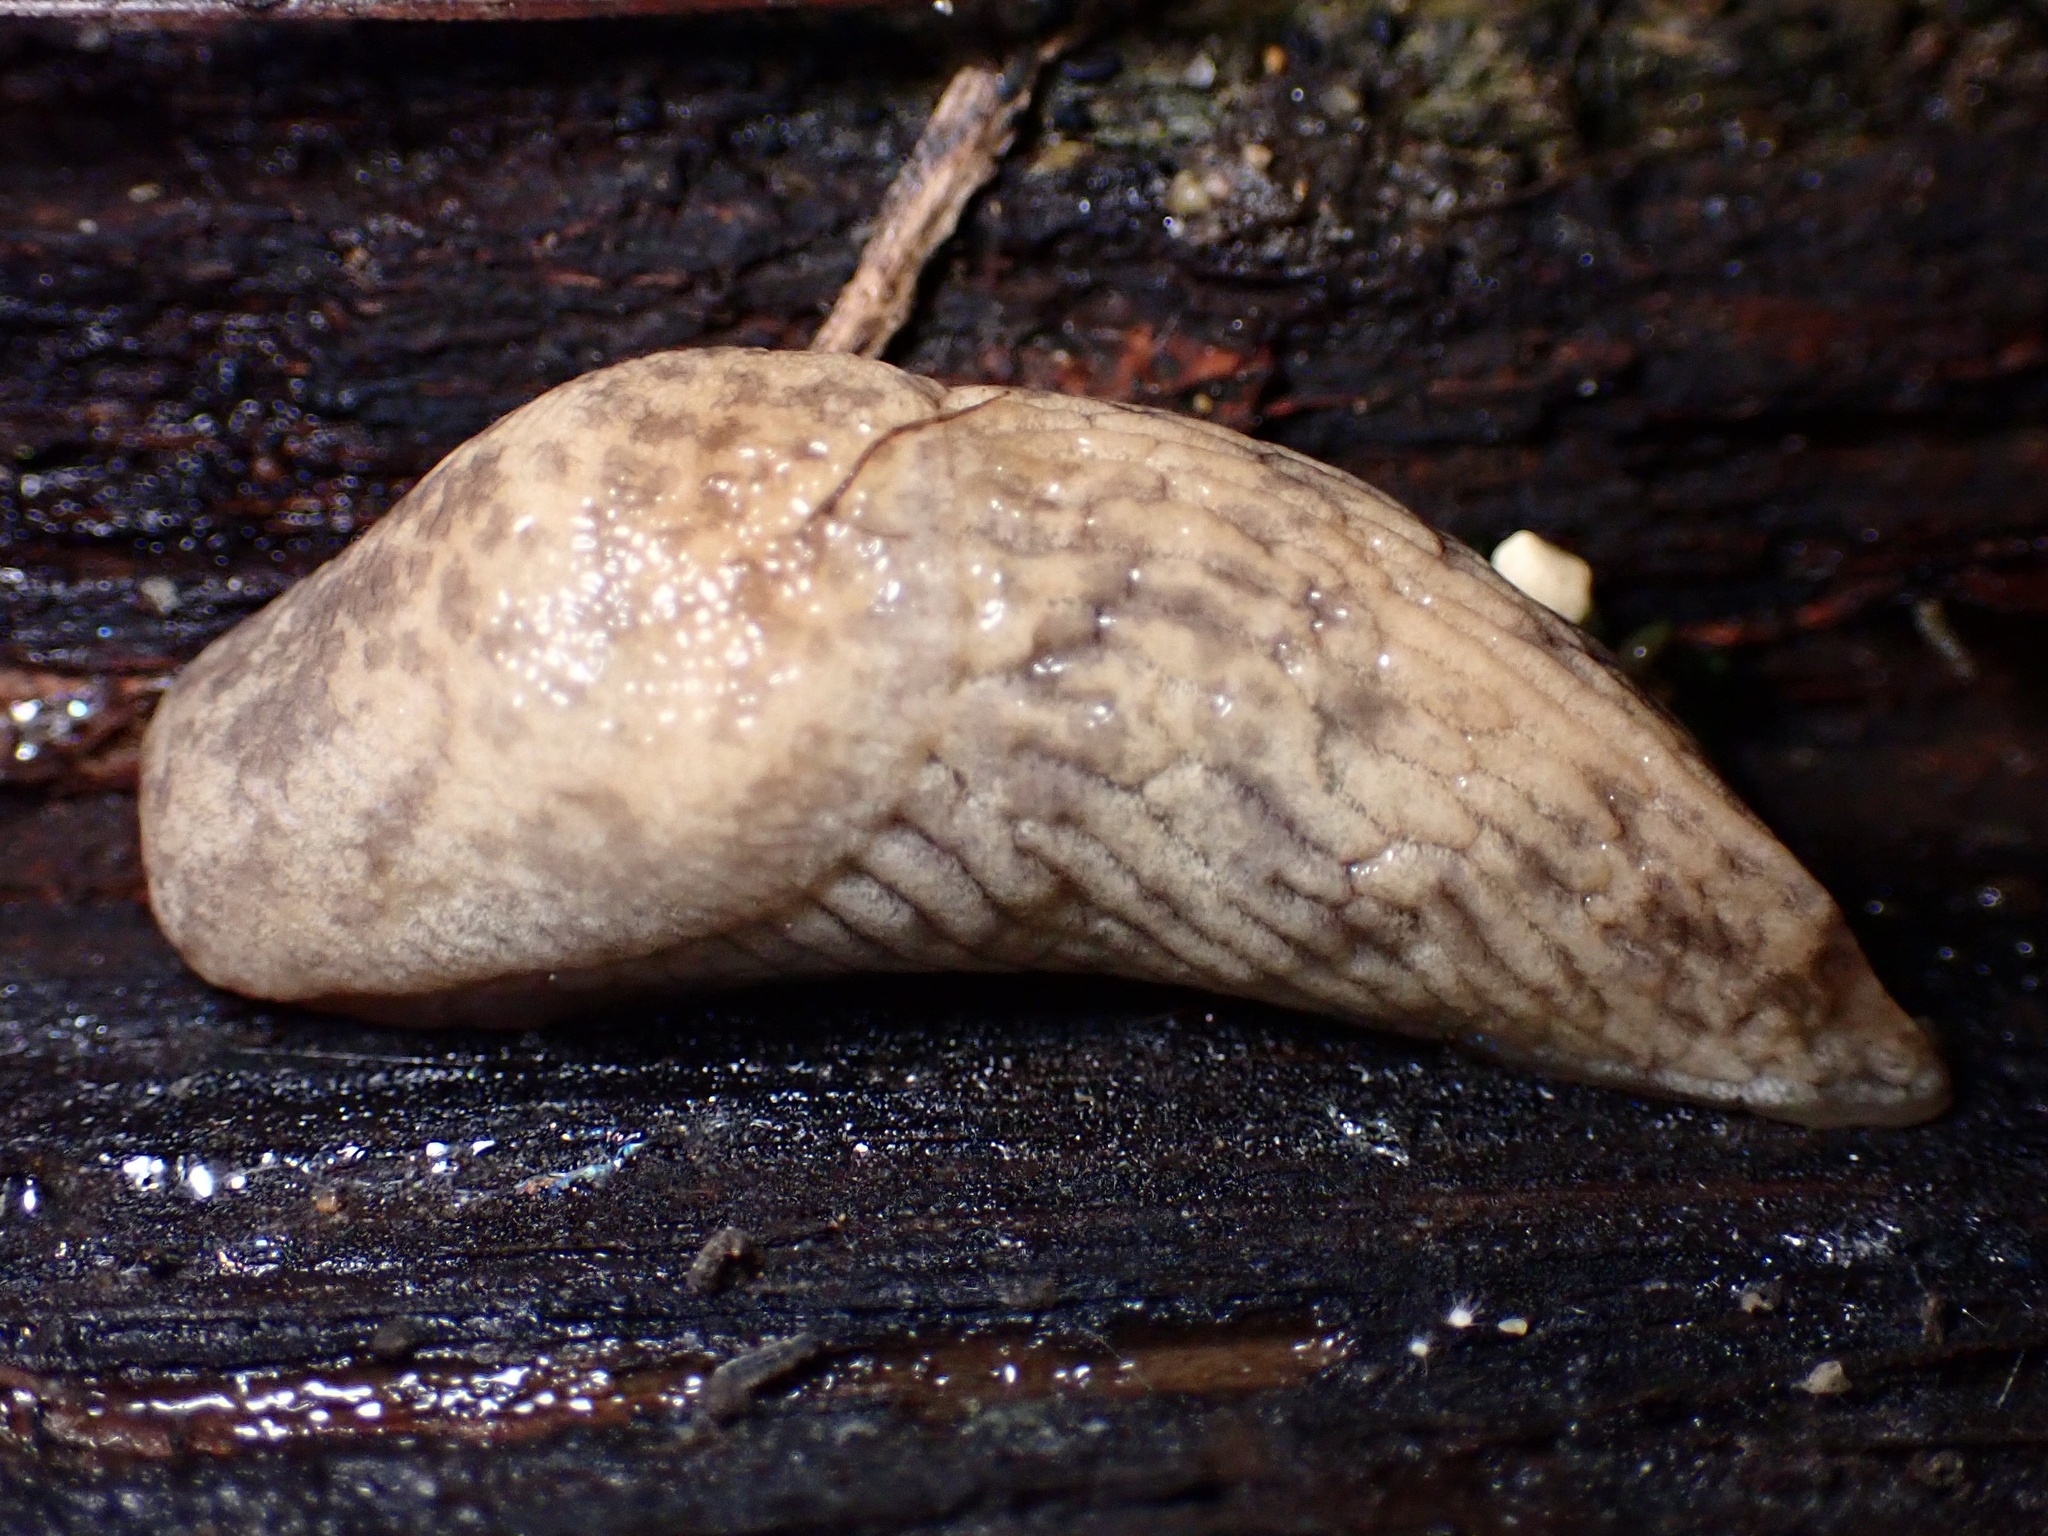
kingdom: Animalia
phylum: Mollusca
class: Gastropoda
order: Stylommatophora
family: Agriolimacidae
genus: Deroceras
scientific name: Deroceras reticulatum
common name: Gray field slug
